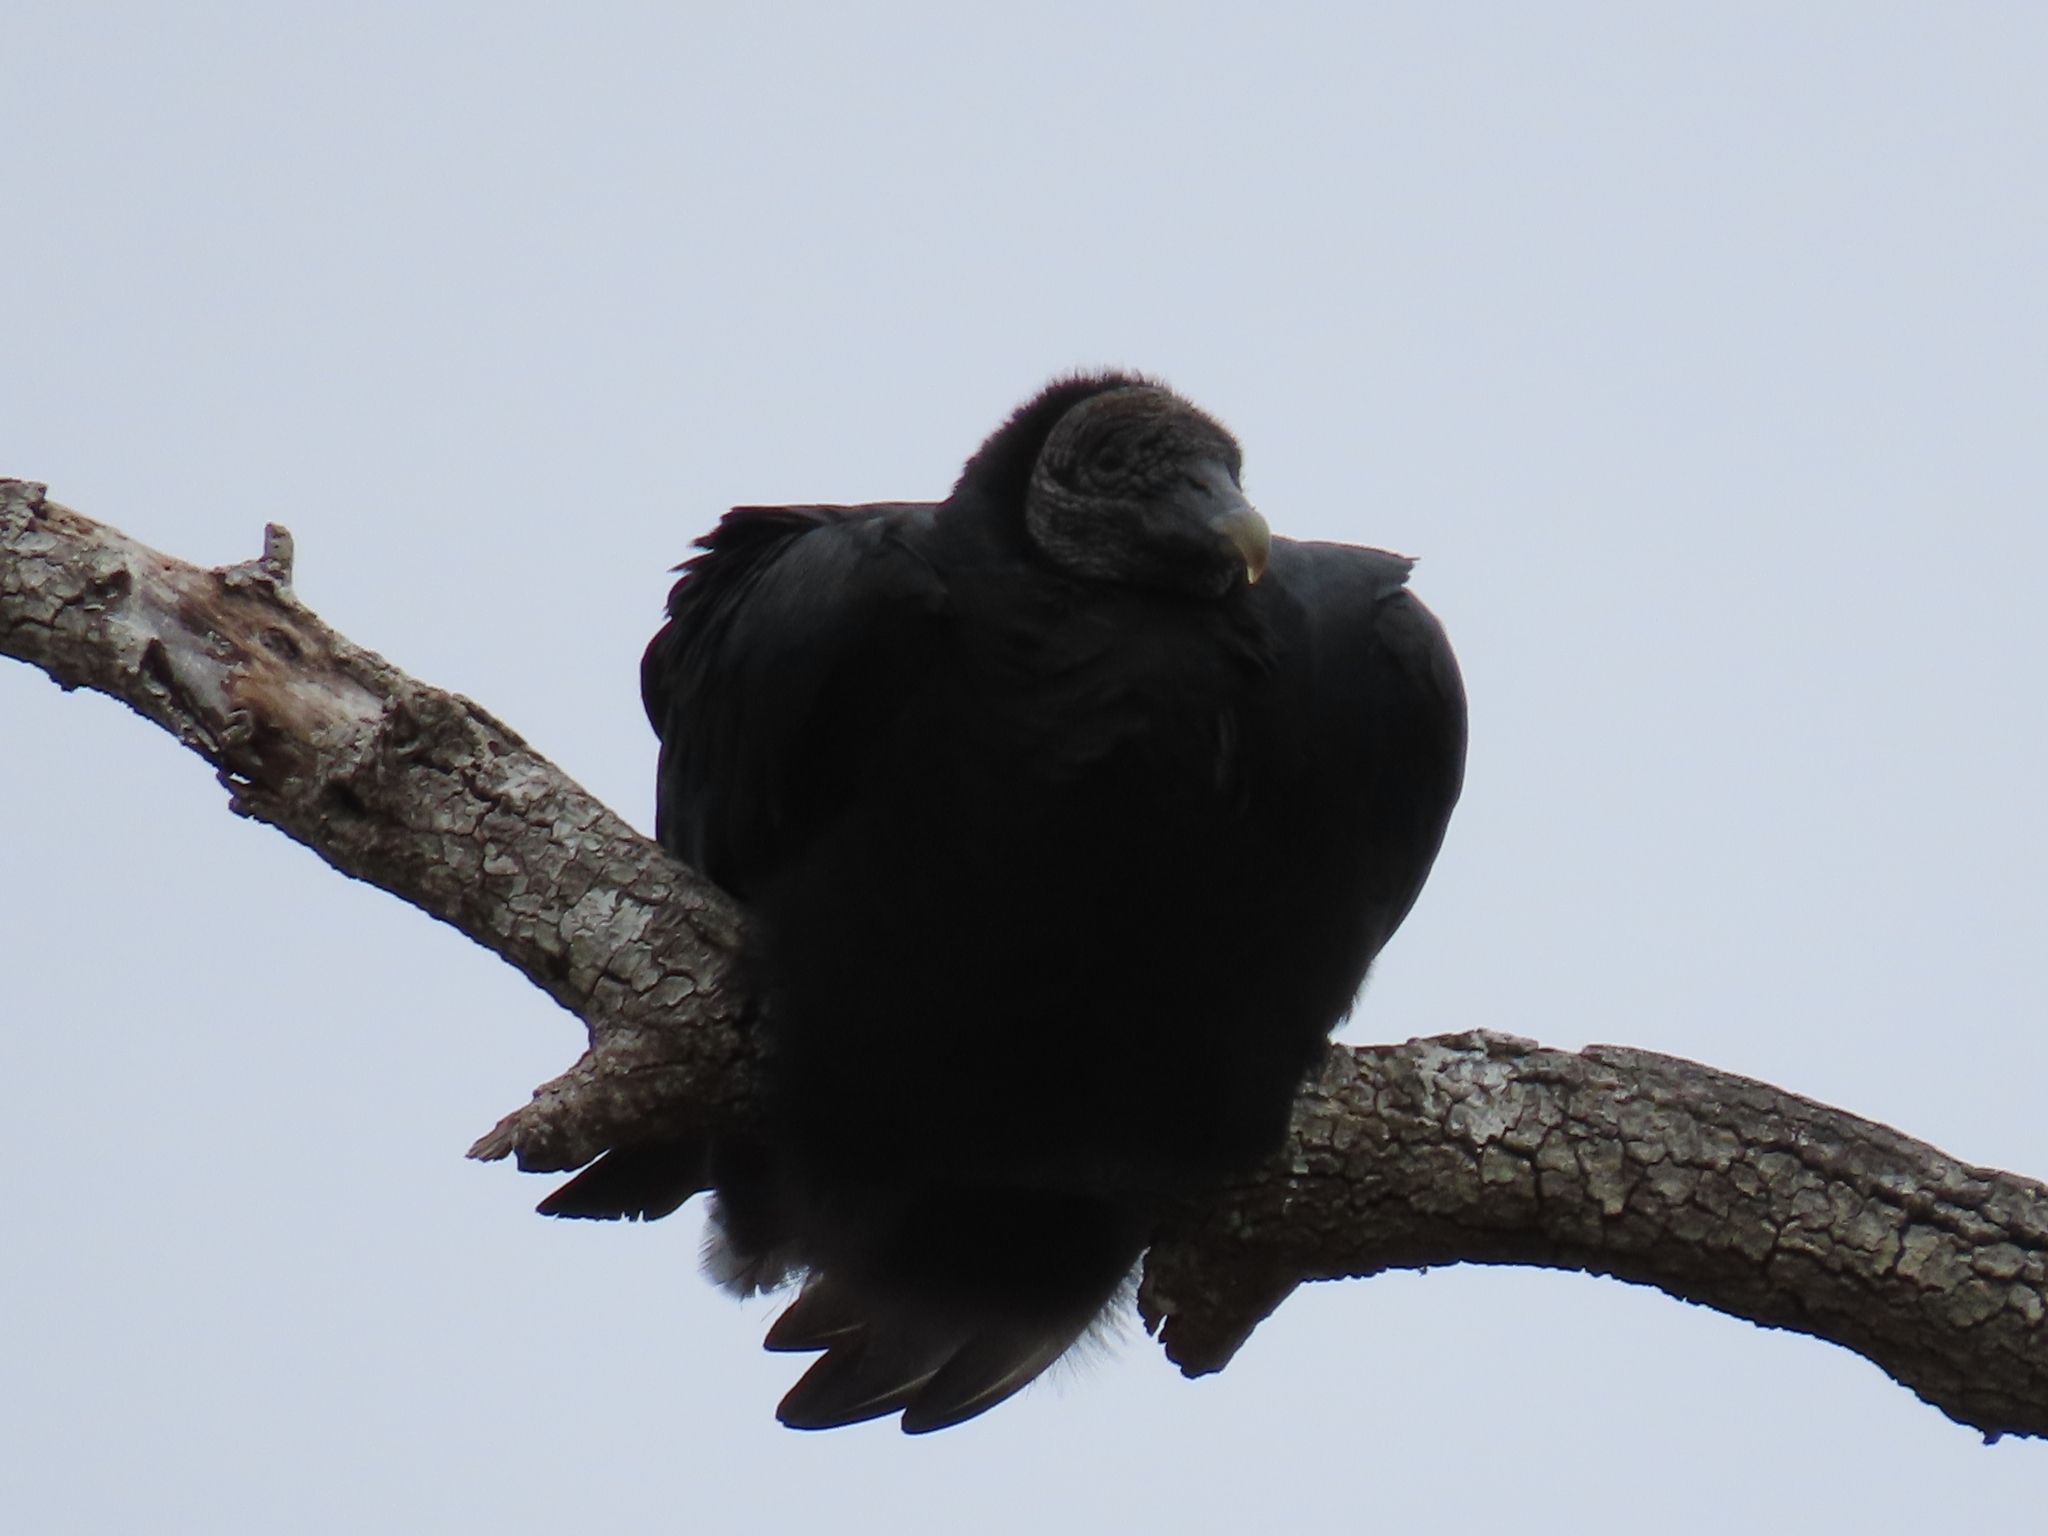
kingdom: Animalia
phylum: Chordata
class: Aves
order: Accipitriformes
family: Cathartidae
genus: Coragyps
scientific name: Coragyps atratus
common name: Black vulture
